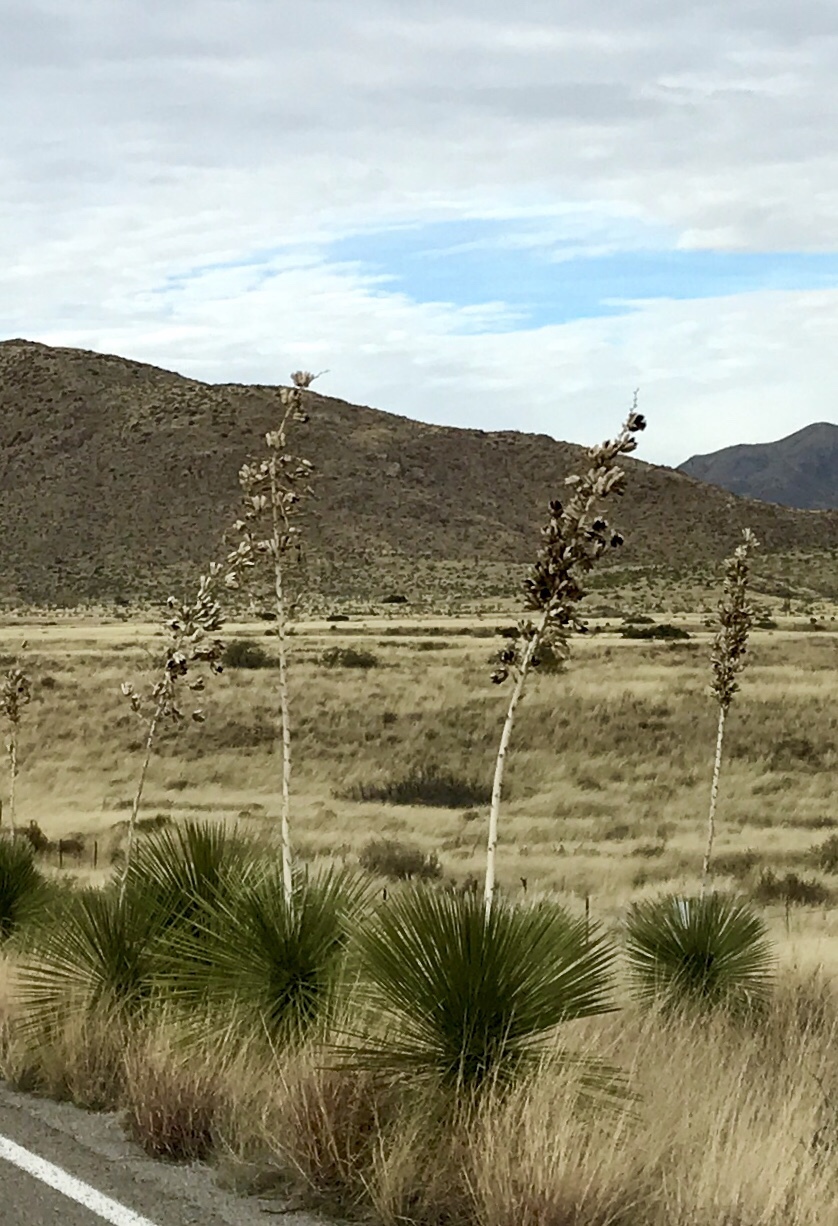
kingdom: Plantae
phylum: Tracheophyta
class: Liliopsida
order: Asparagales
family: Asparagaceae
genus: Yucca
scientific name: Yucca elata
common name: Palmella
